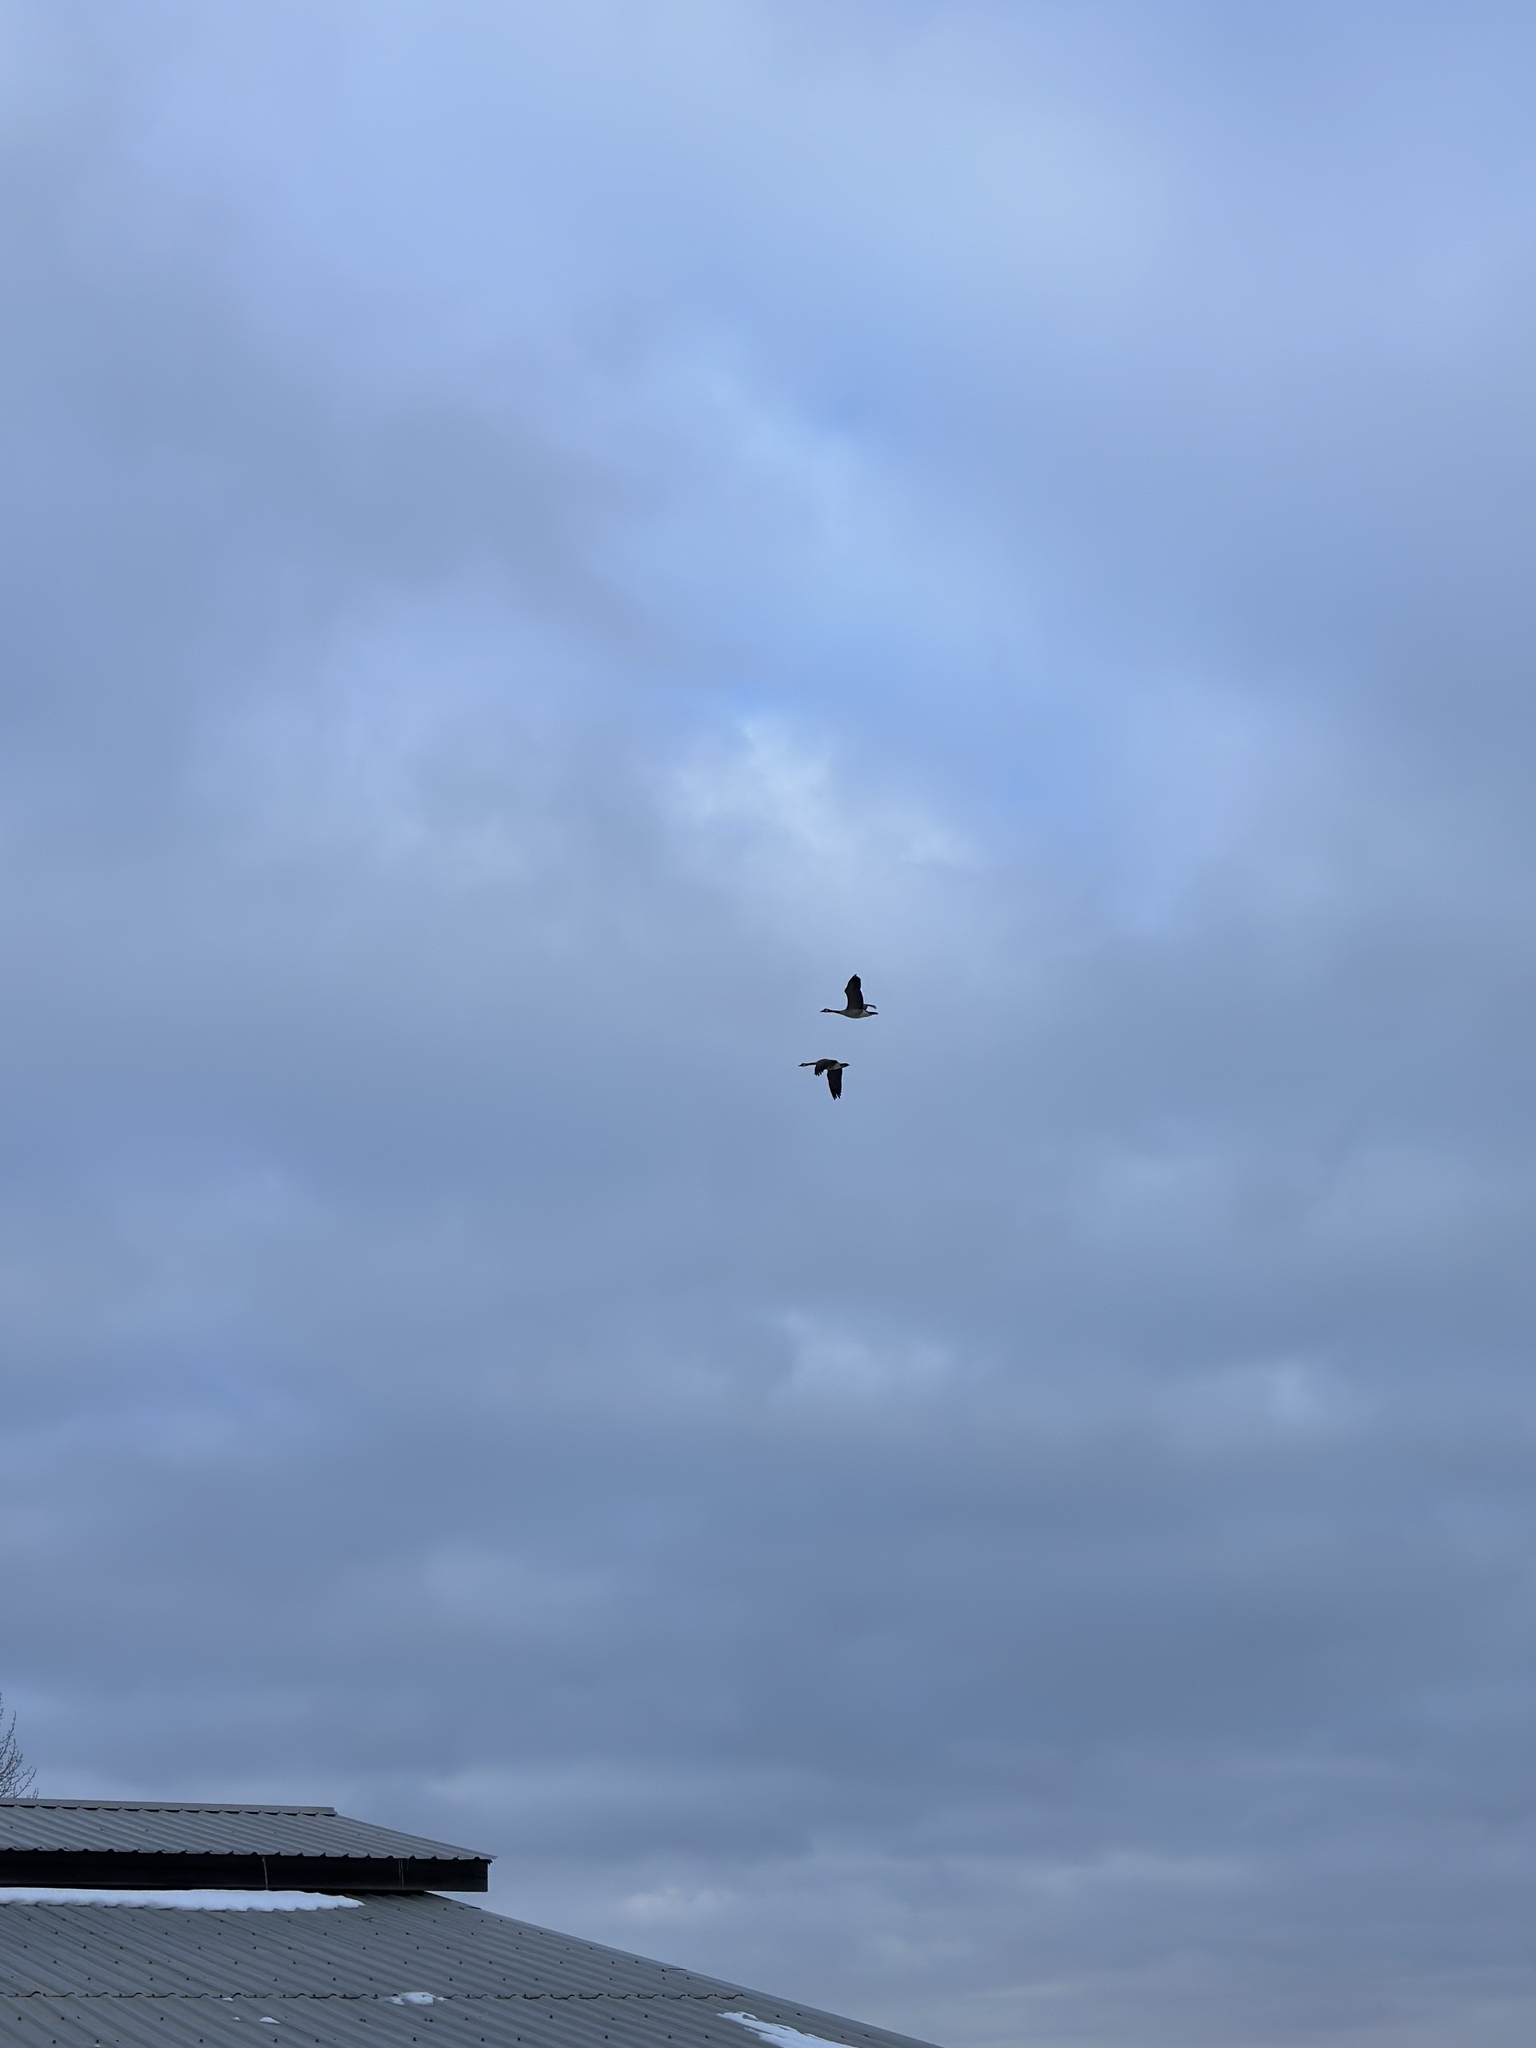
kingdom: Animalia
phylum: Chordata
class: Aves
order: Anseriformes
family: Anatidae
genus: Branta
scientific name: Branta canadensis
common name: Canada goose
